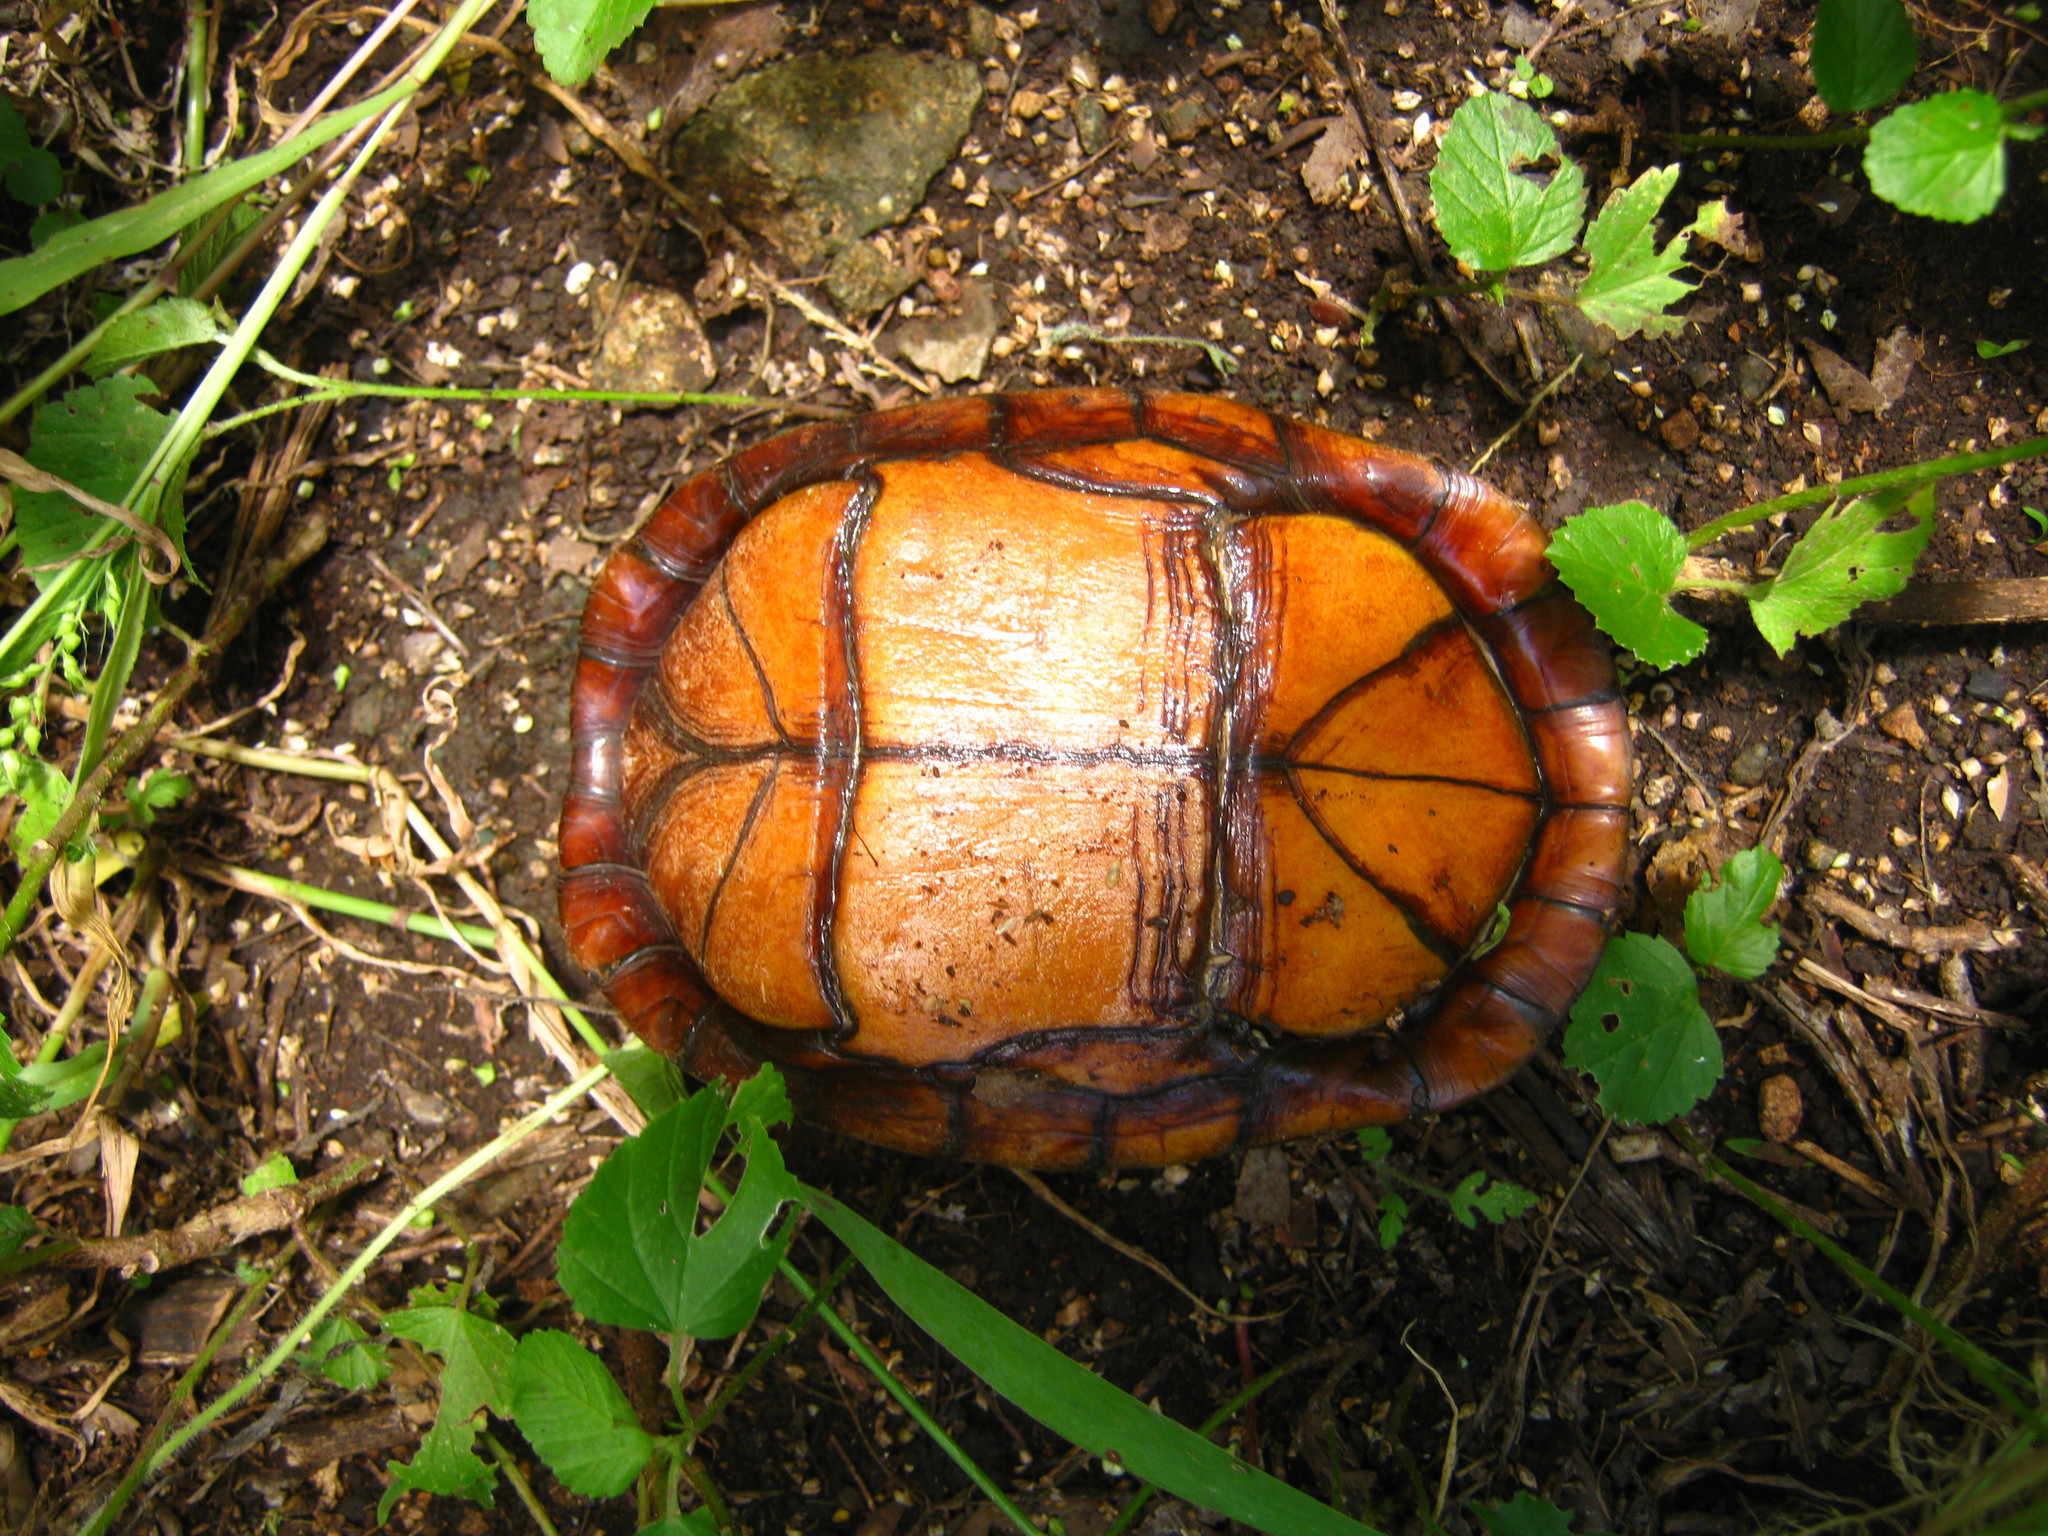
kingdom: Animalia
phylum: Chordata
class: Testudines
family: Kinosternidae
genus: Kinosternon
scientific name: Kinosternon scorpioides
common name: Scorpion mud turtle
